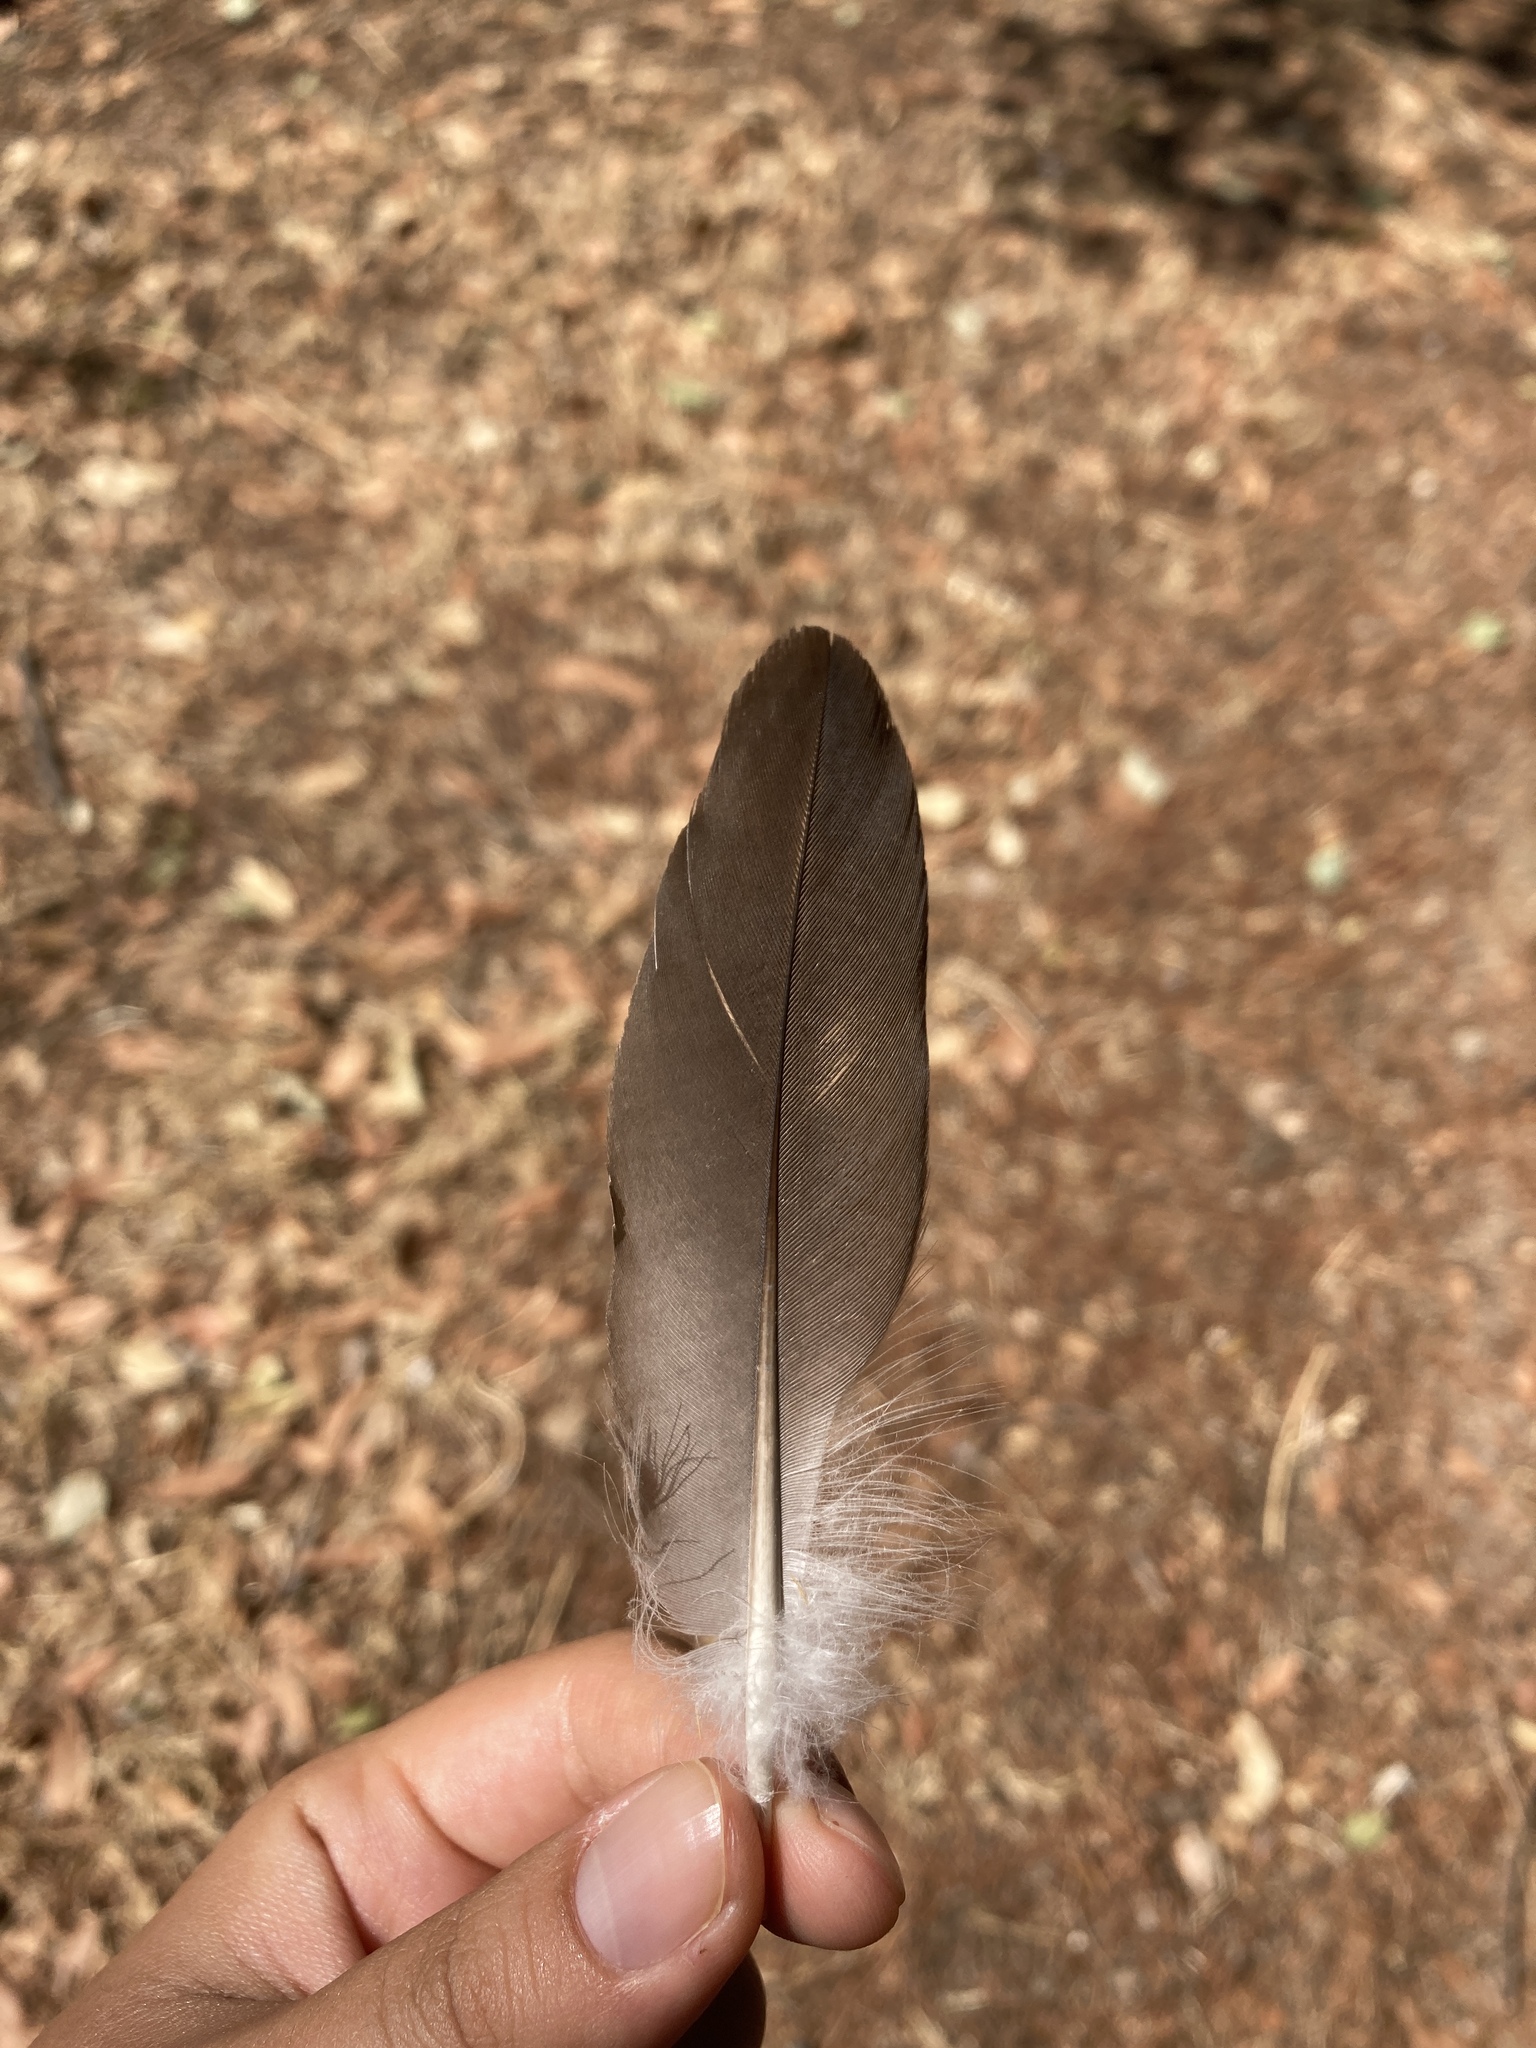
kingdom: Animalia
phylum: Chordata
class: Aves
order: Columbiformes
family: Columbidae
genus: Columba
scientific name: Columba palumbus
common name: Common wood pigeon
